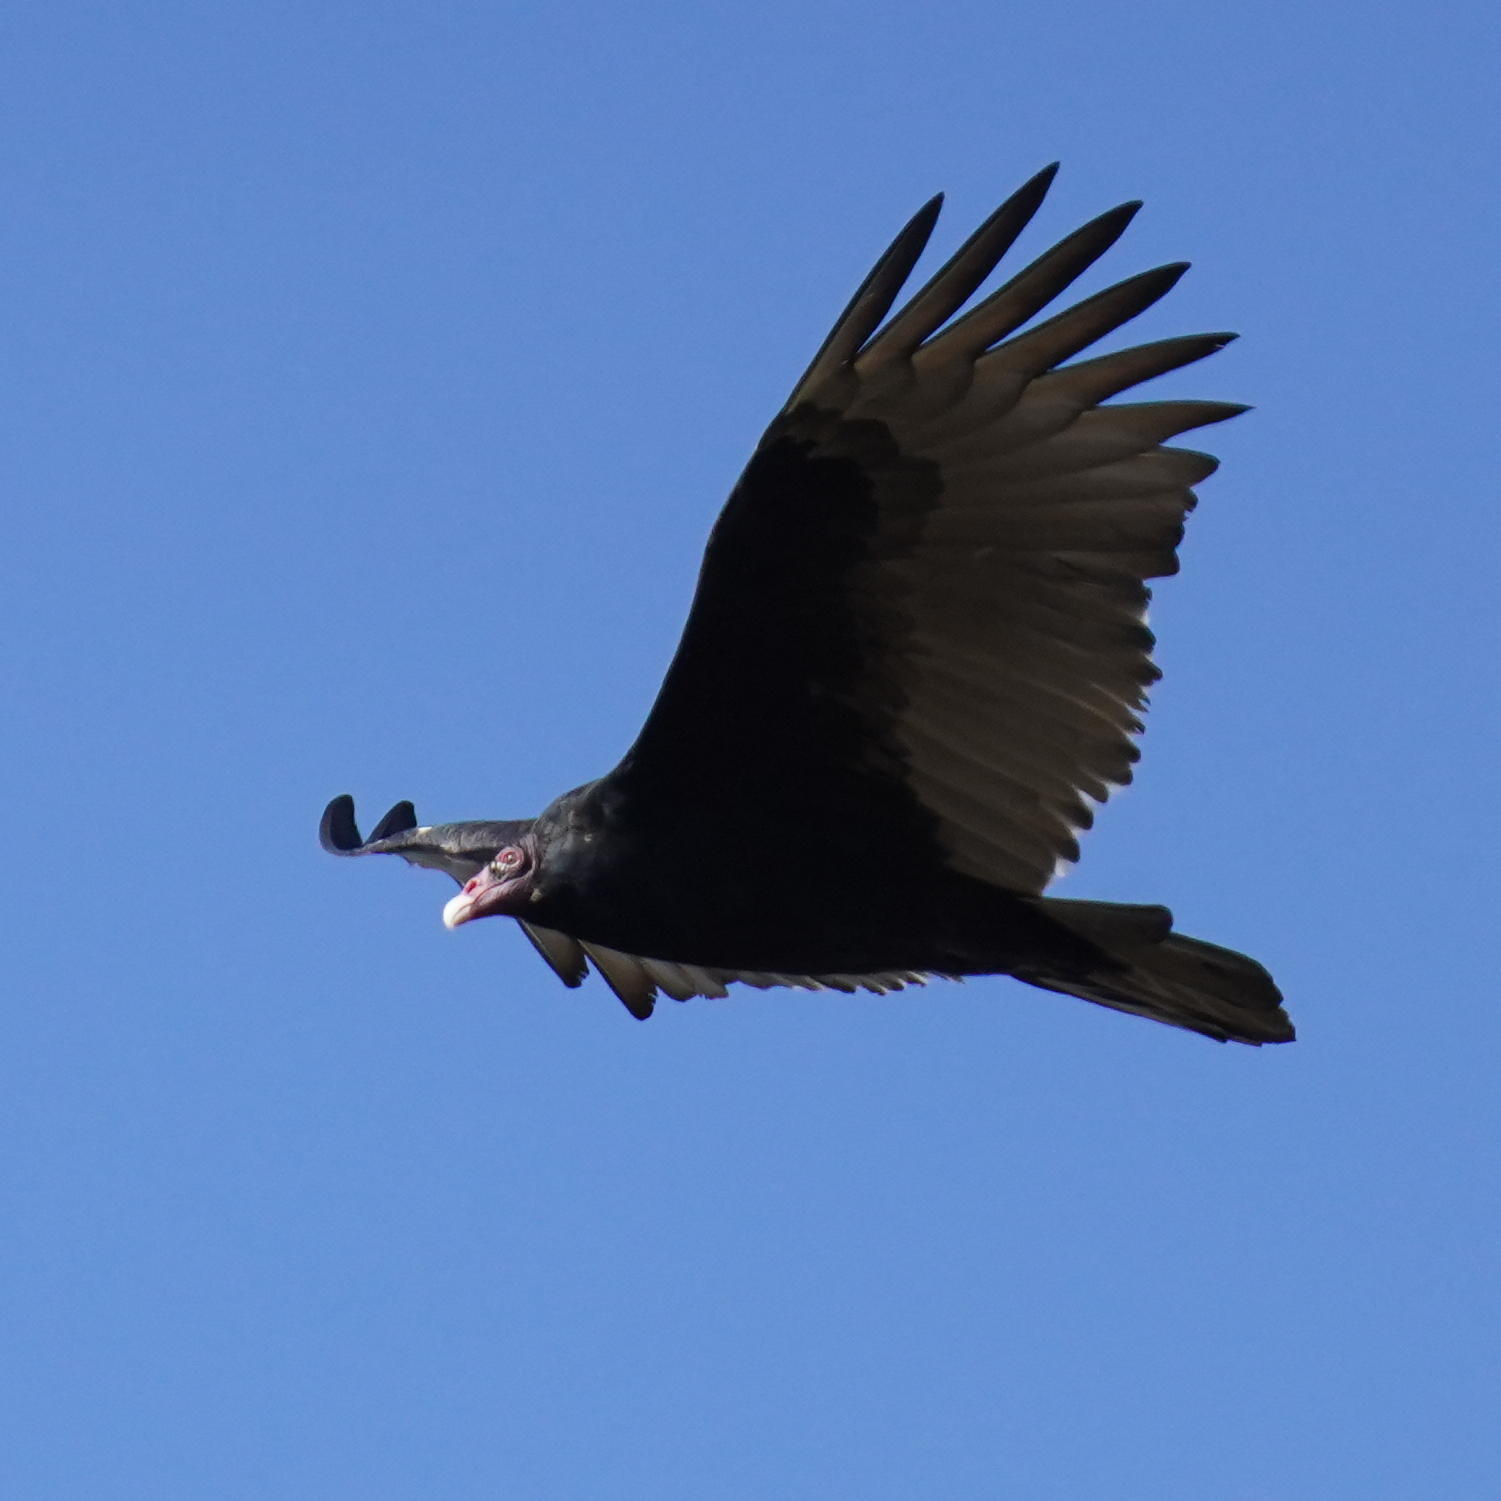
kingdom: Animalia
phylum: Chordata
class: Aves
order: Accipitriformes
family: Cathartidae
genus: Cathartes
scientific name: Cathartes aura
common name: Turkey vulture
